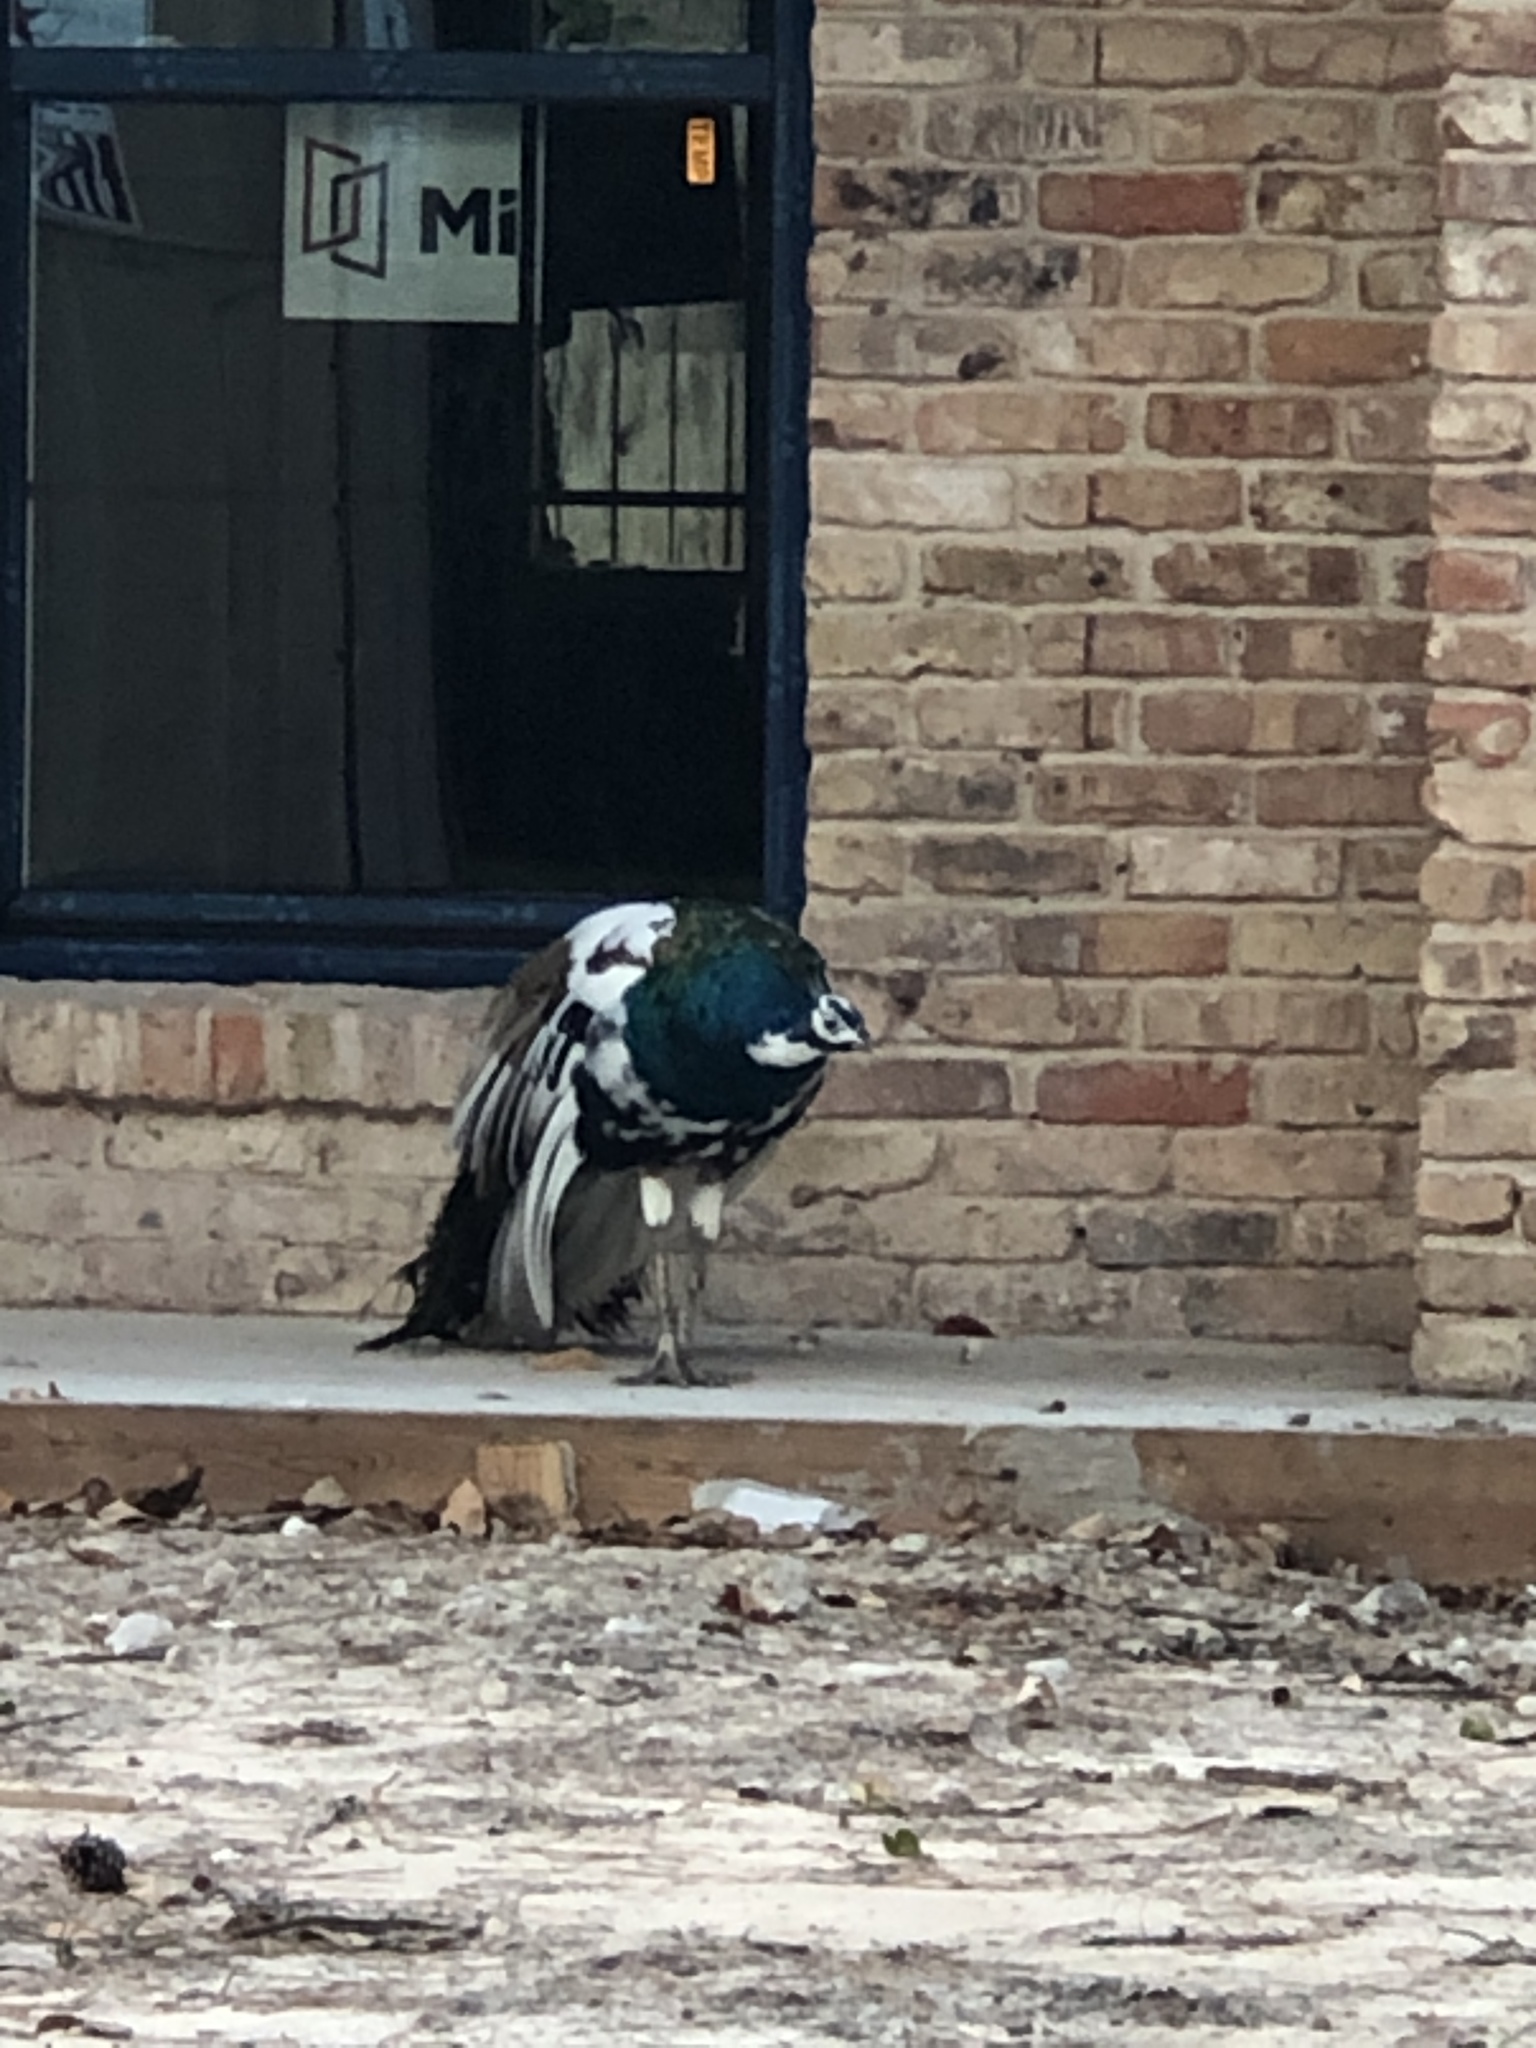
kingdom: Animalia
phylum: Chordata
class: Aves
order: Galliformes
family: Phasianidae
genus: Pavo
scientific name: Pavo cristatus
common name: Indian peafowl
